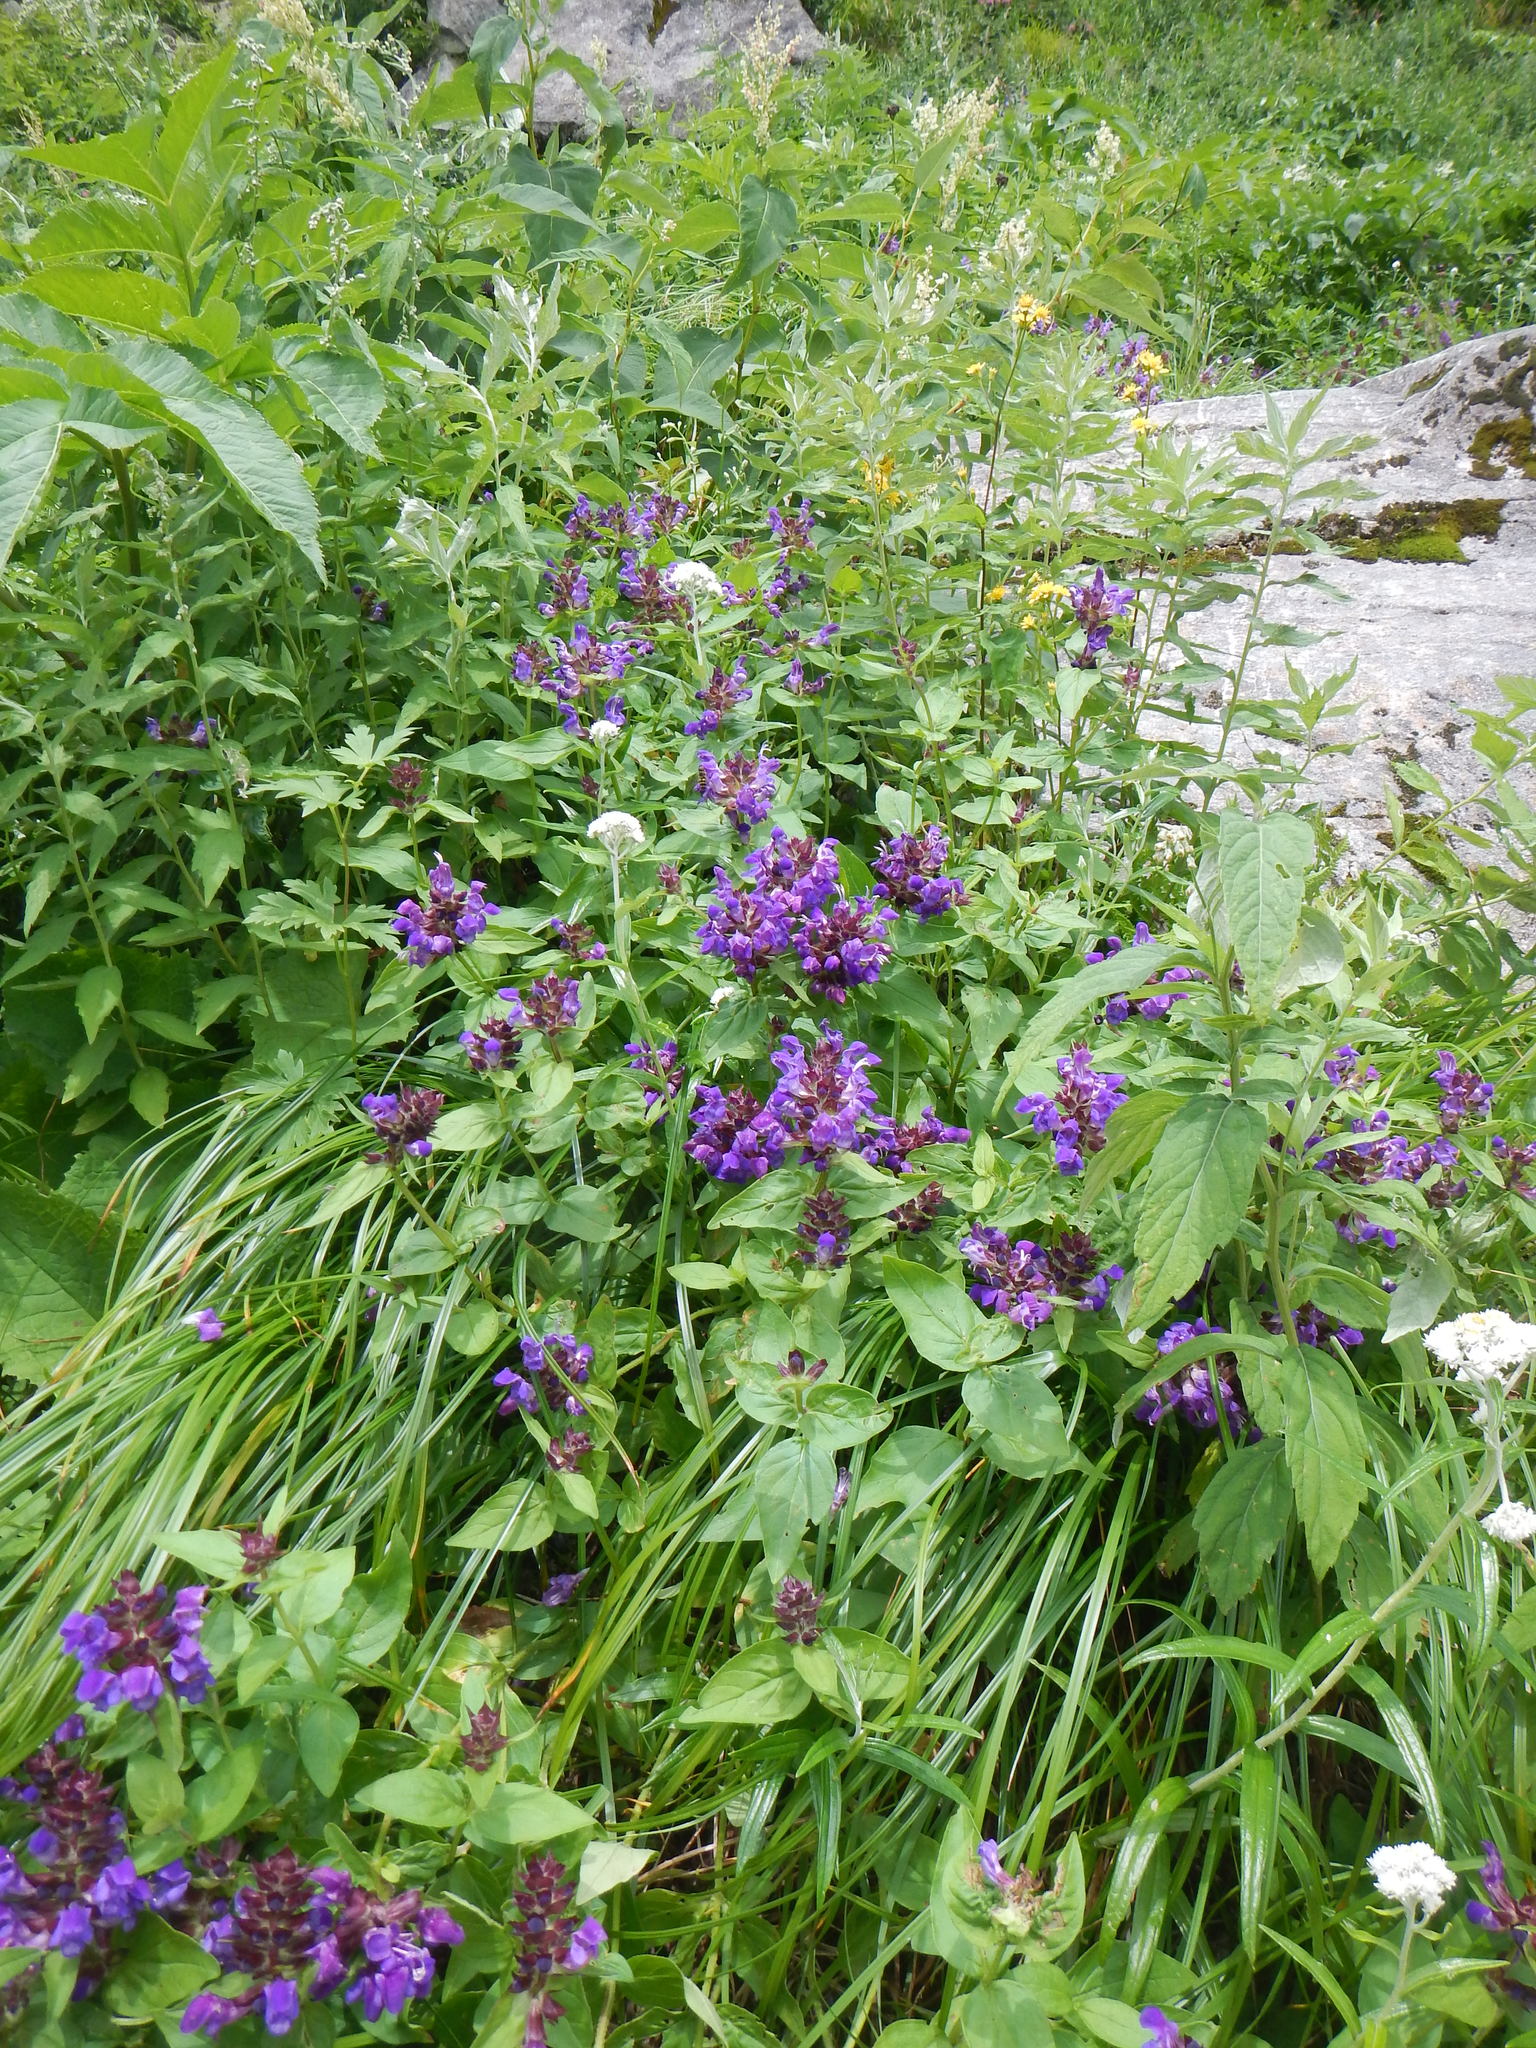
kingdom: Plantae
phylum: Tracheophyta
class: Magnoliopsida
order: Lamiales
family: Lamiaceae
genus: Prunella
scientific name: Prunella prunelliformis
